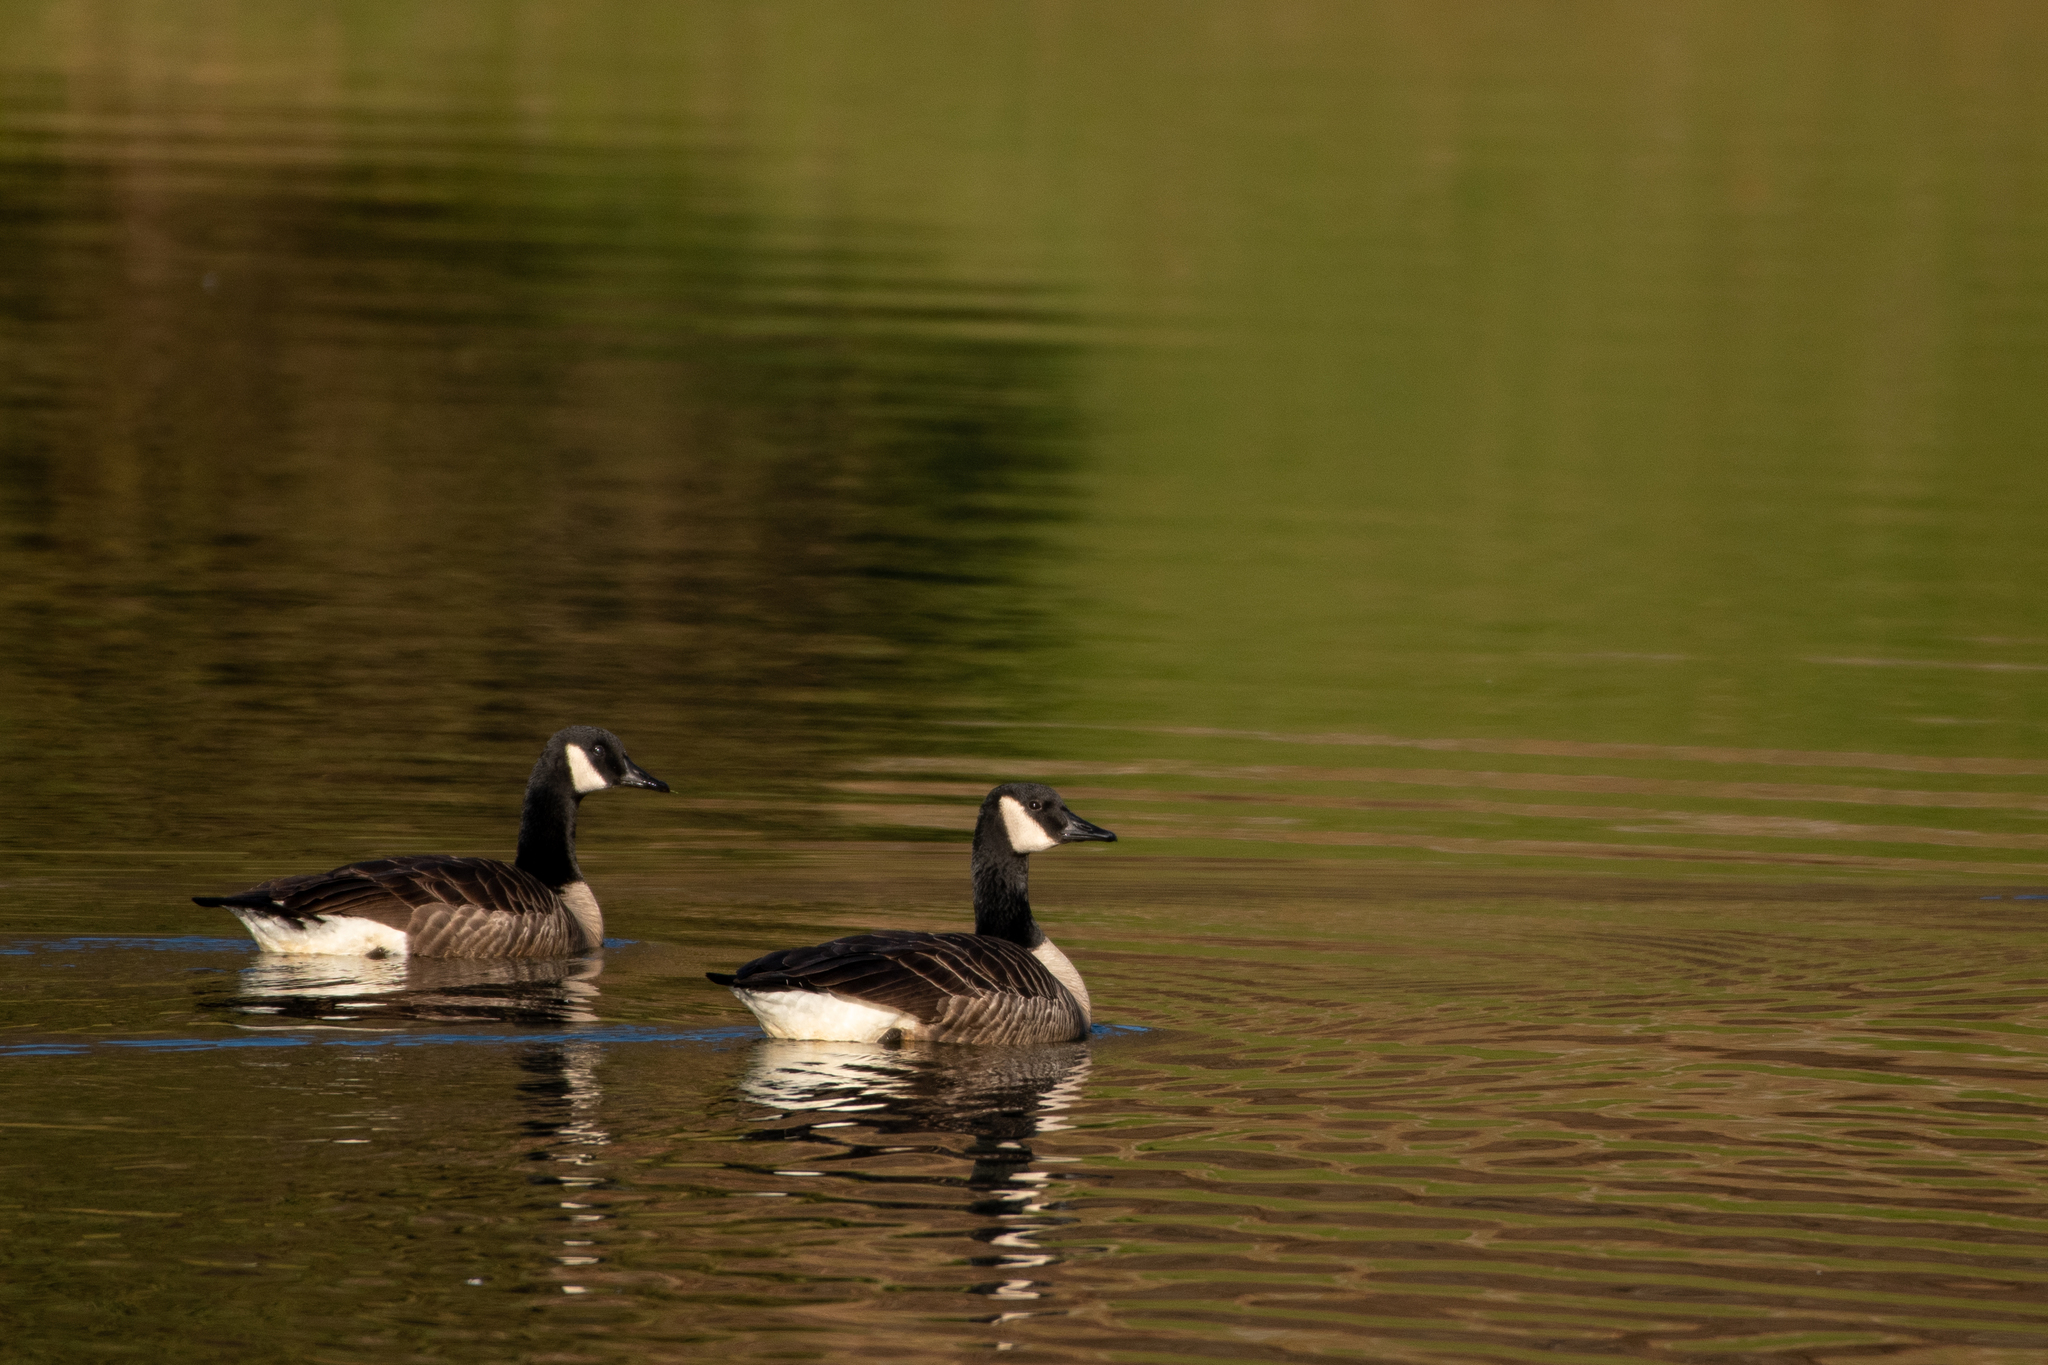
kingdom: Animalia
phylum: Chordata
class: Aves
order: Anseriformes
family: Anatidae
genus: Branta
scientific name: Branta canadensis
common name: Canada goose
